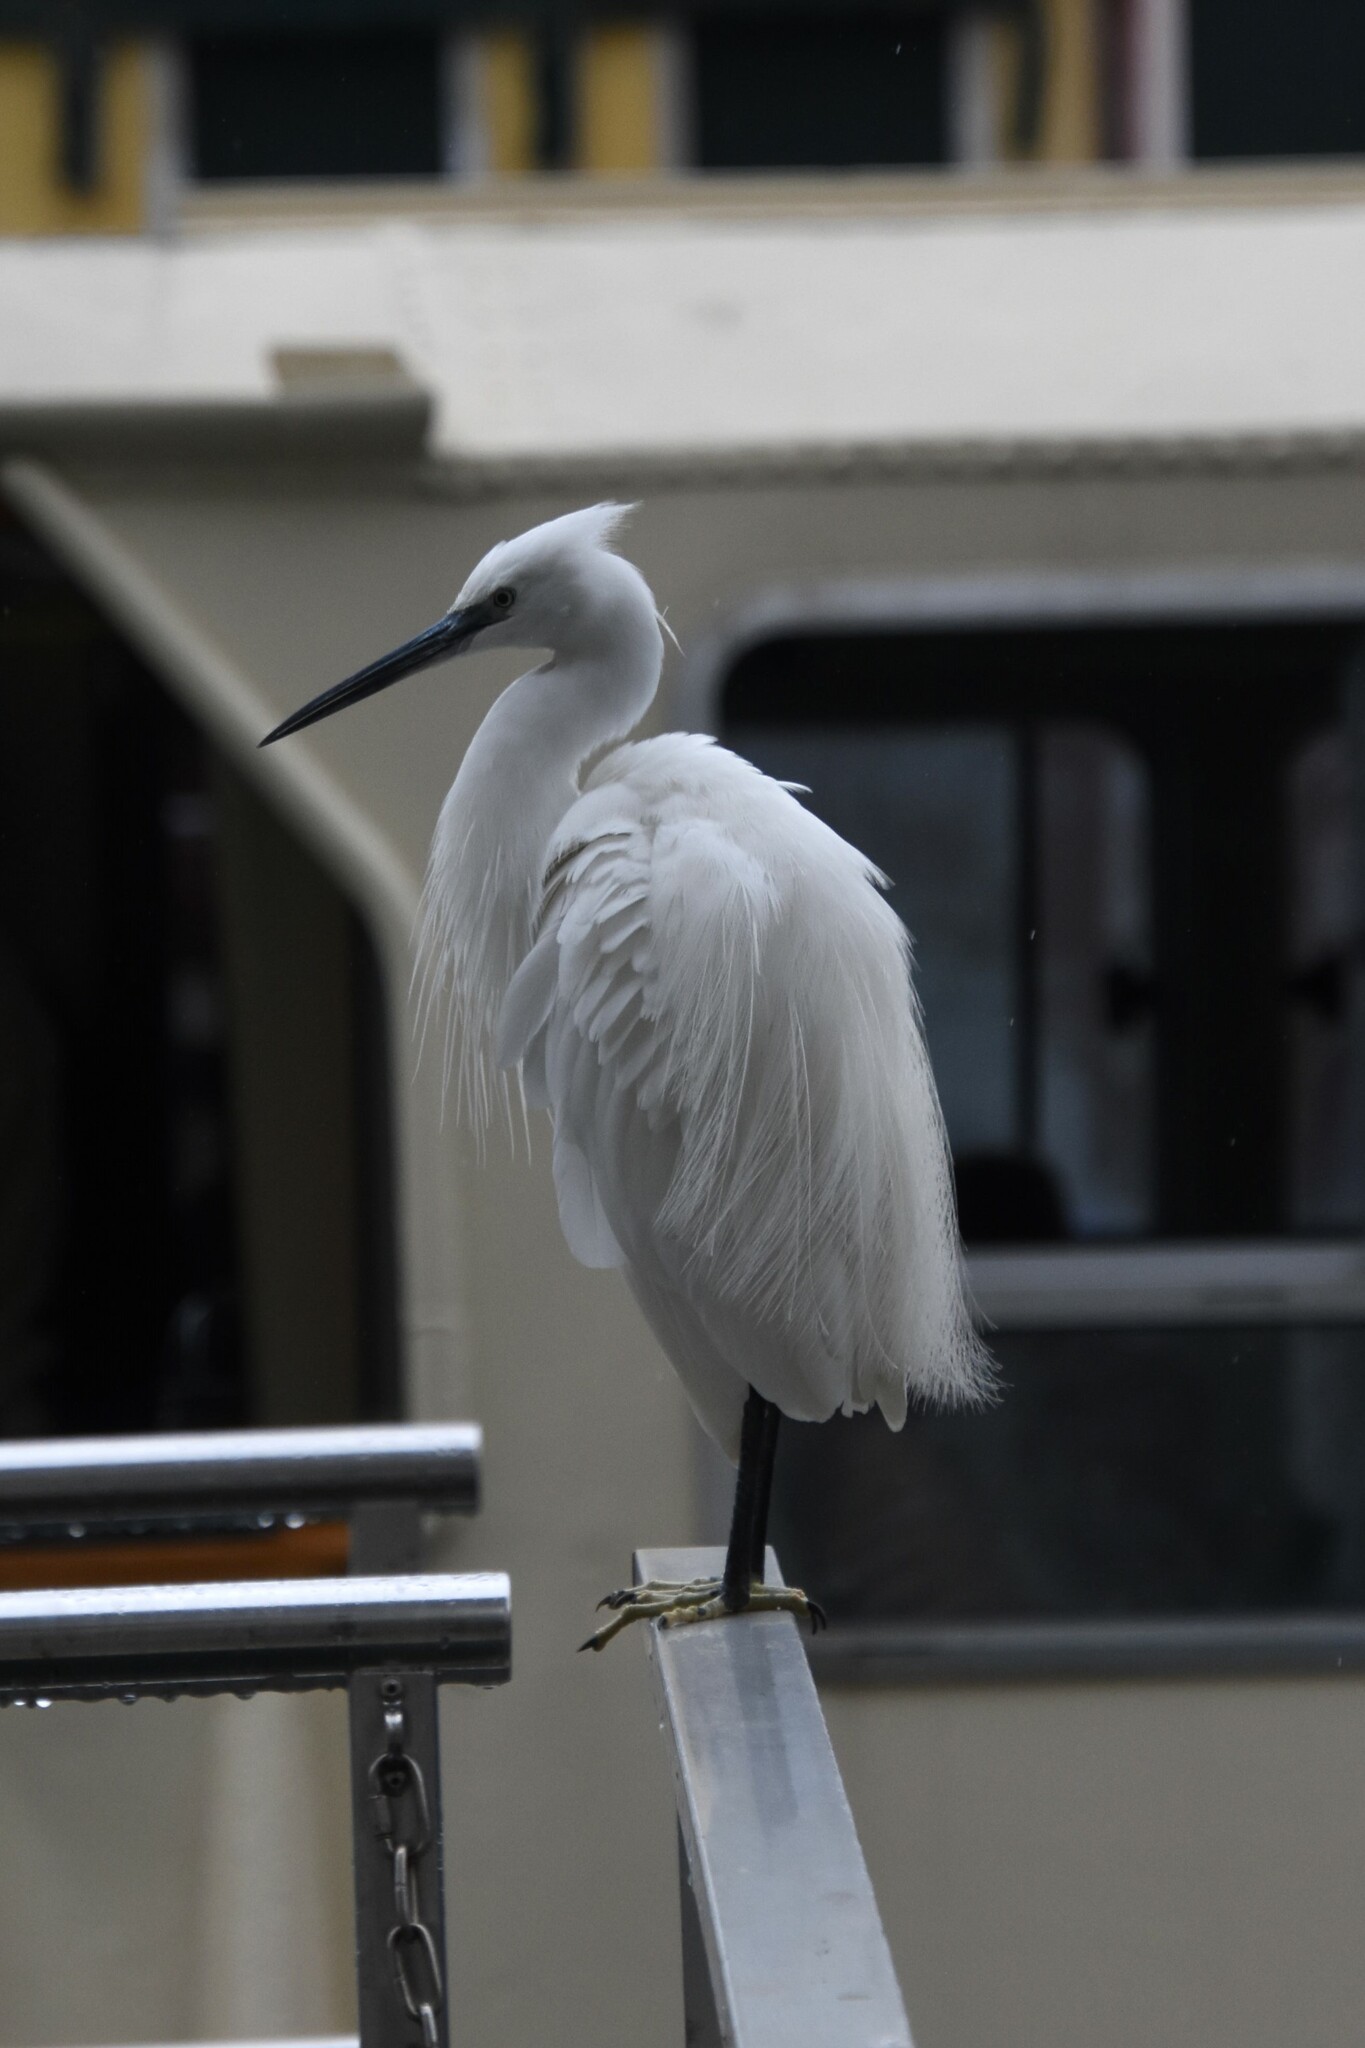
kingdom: Animalia
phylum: Chordata
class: Aves
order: Pelecaniformes
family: Ardeidae
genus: Egretta
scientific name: Egretta garzetta
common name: Little egret
